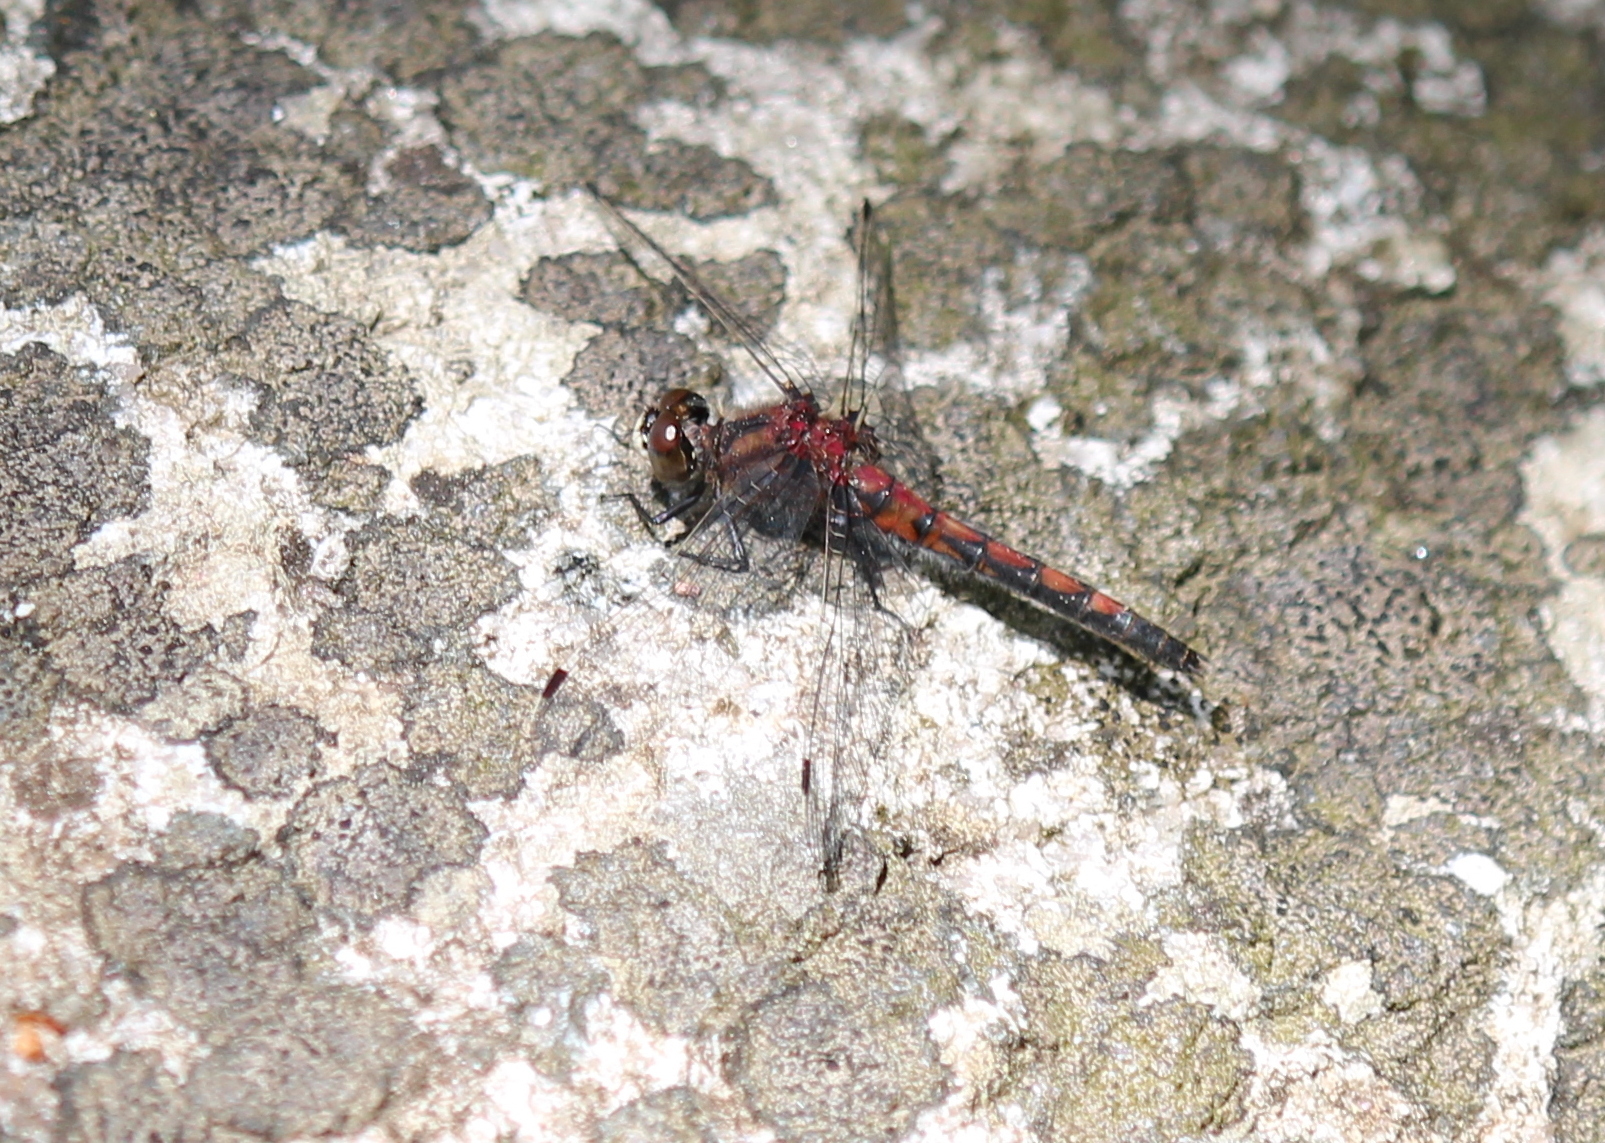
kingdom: Animalia
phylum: Arthropoda
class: Insecta
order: Odonata
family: Libellulidae
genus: Leucorrhinia
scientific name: Leucorrhinia hudsonica
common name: Hudsonian whiteface
